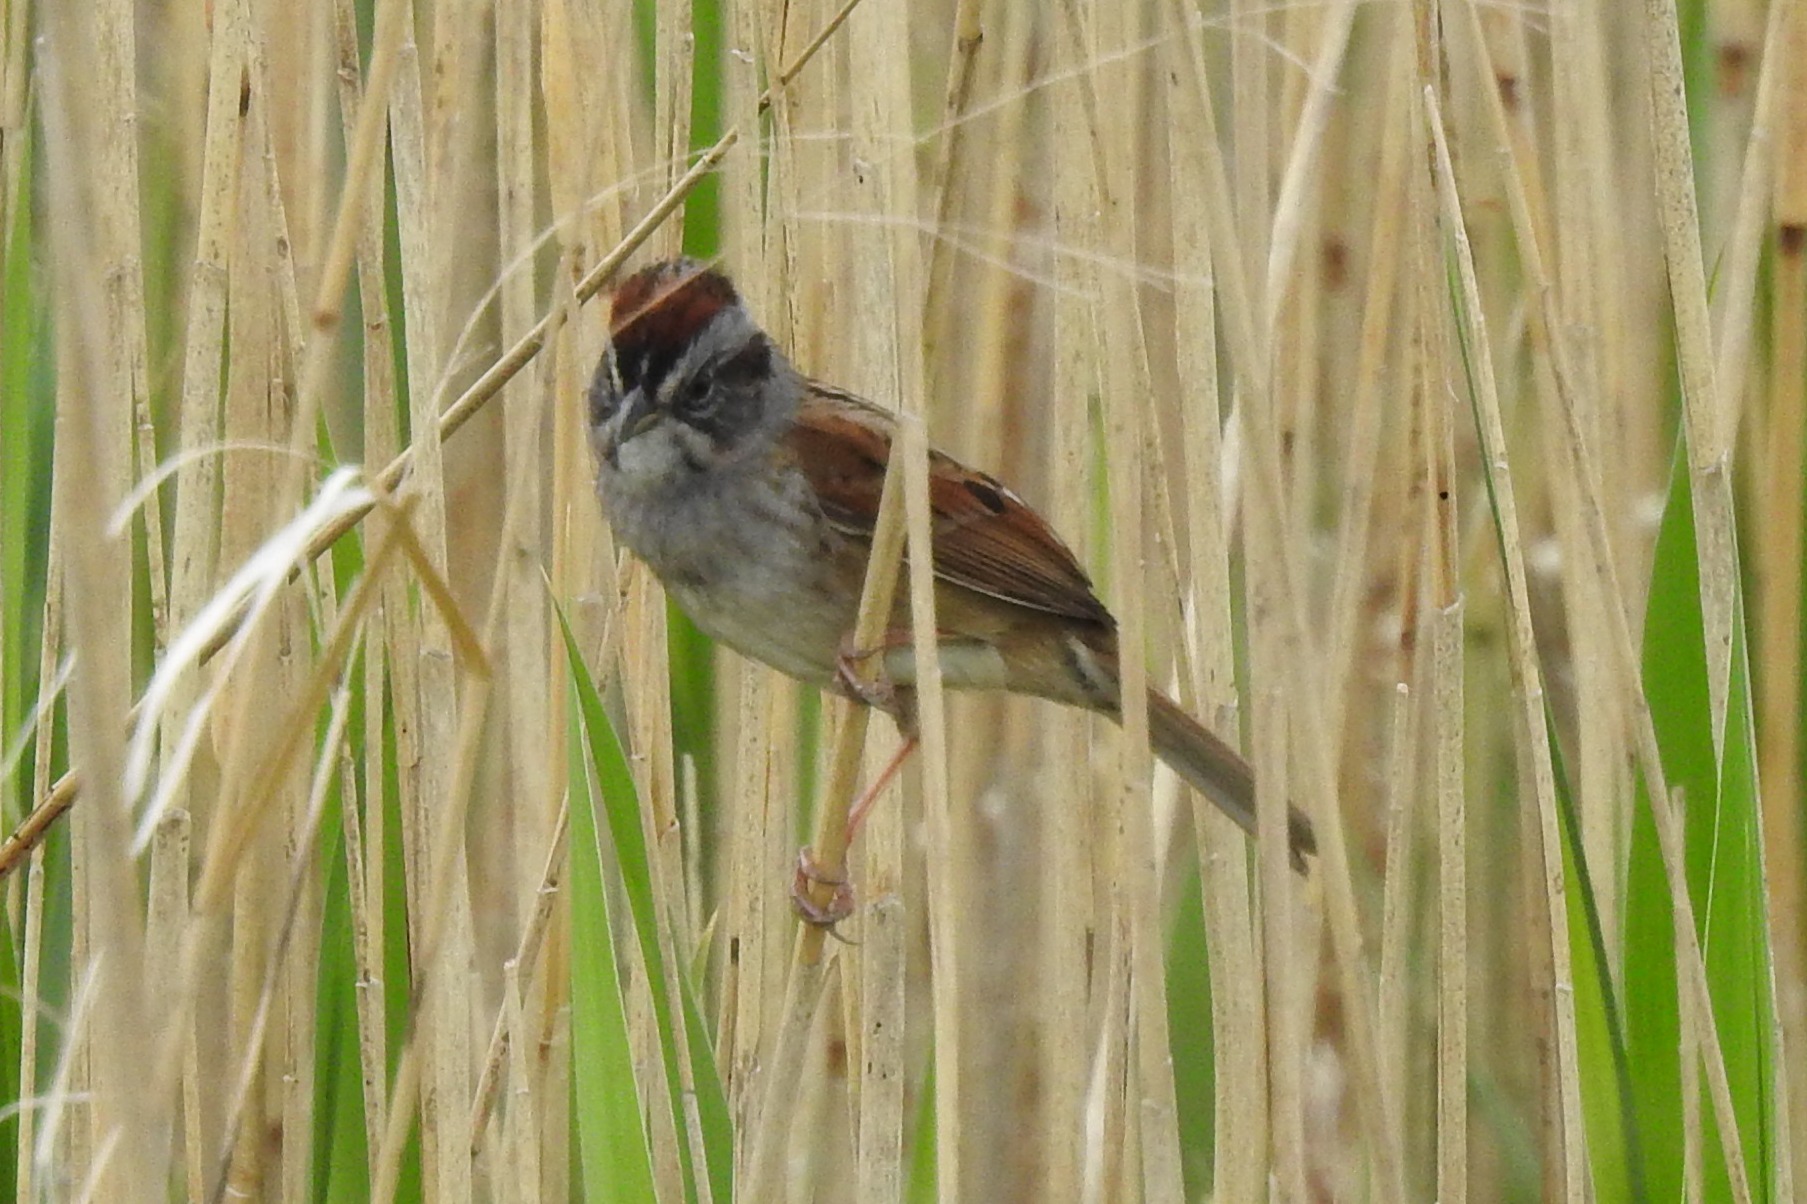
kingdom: Animalia
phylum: Chordata
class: Aves
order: Passeriformes
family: Passerellidae
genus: Melospiza
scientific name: Melospiza georgiana
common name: Swamp sparrow
